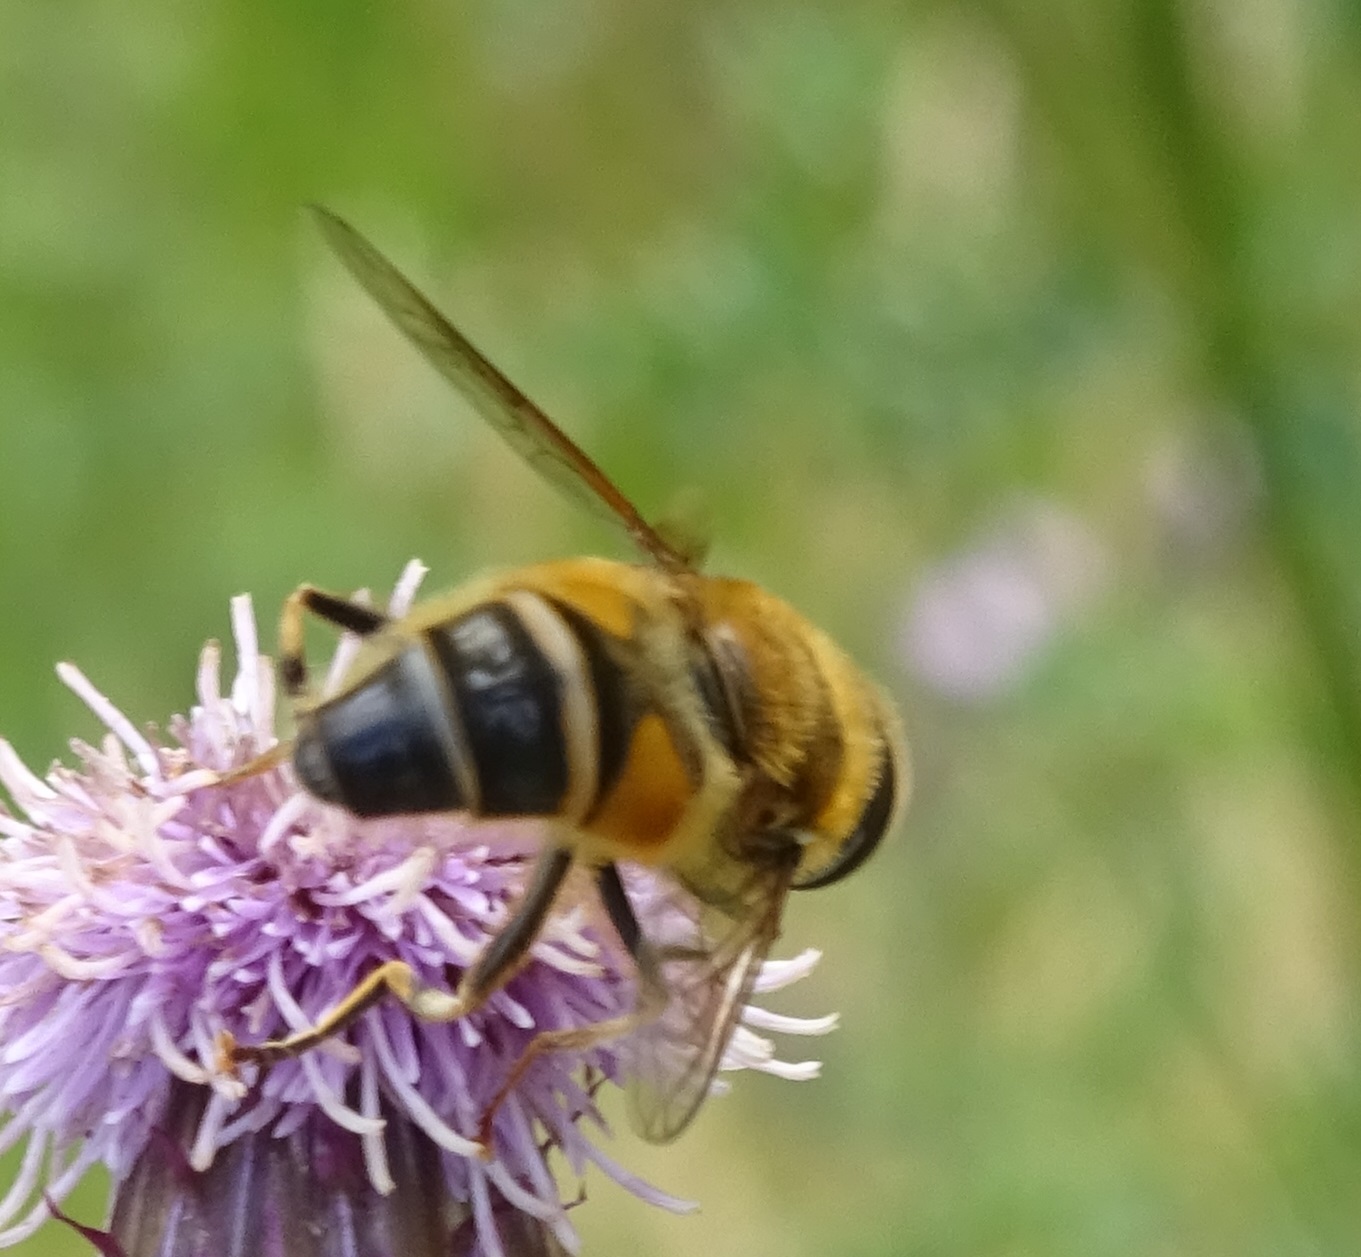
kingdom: Animalia
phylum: Arthropoda
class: Insecta
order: Diptera
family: Syrphidae
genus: Eristalis
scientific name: Eristalis pertinax
